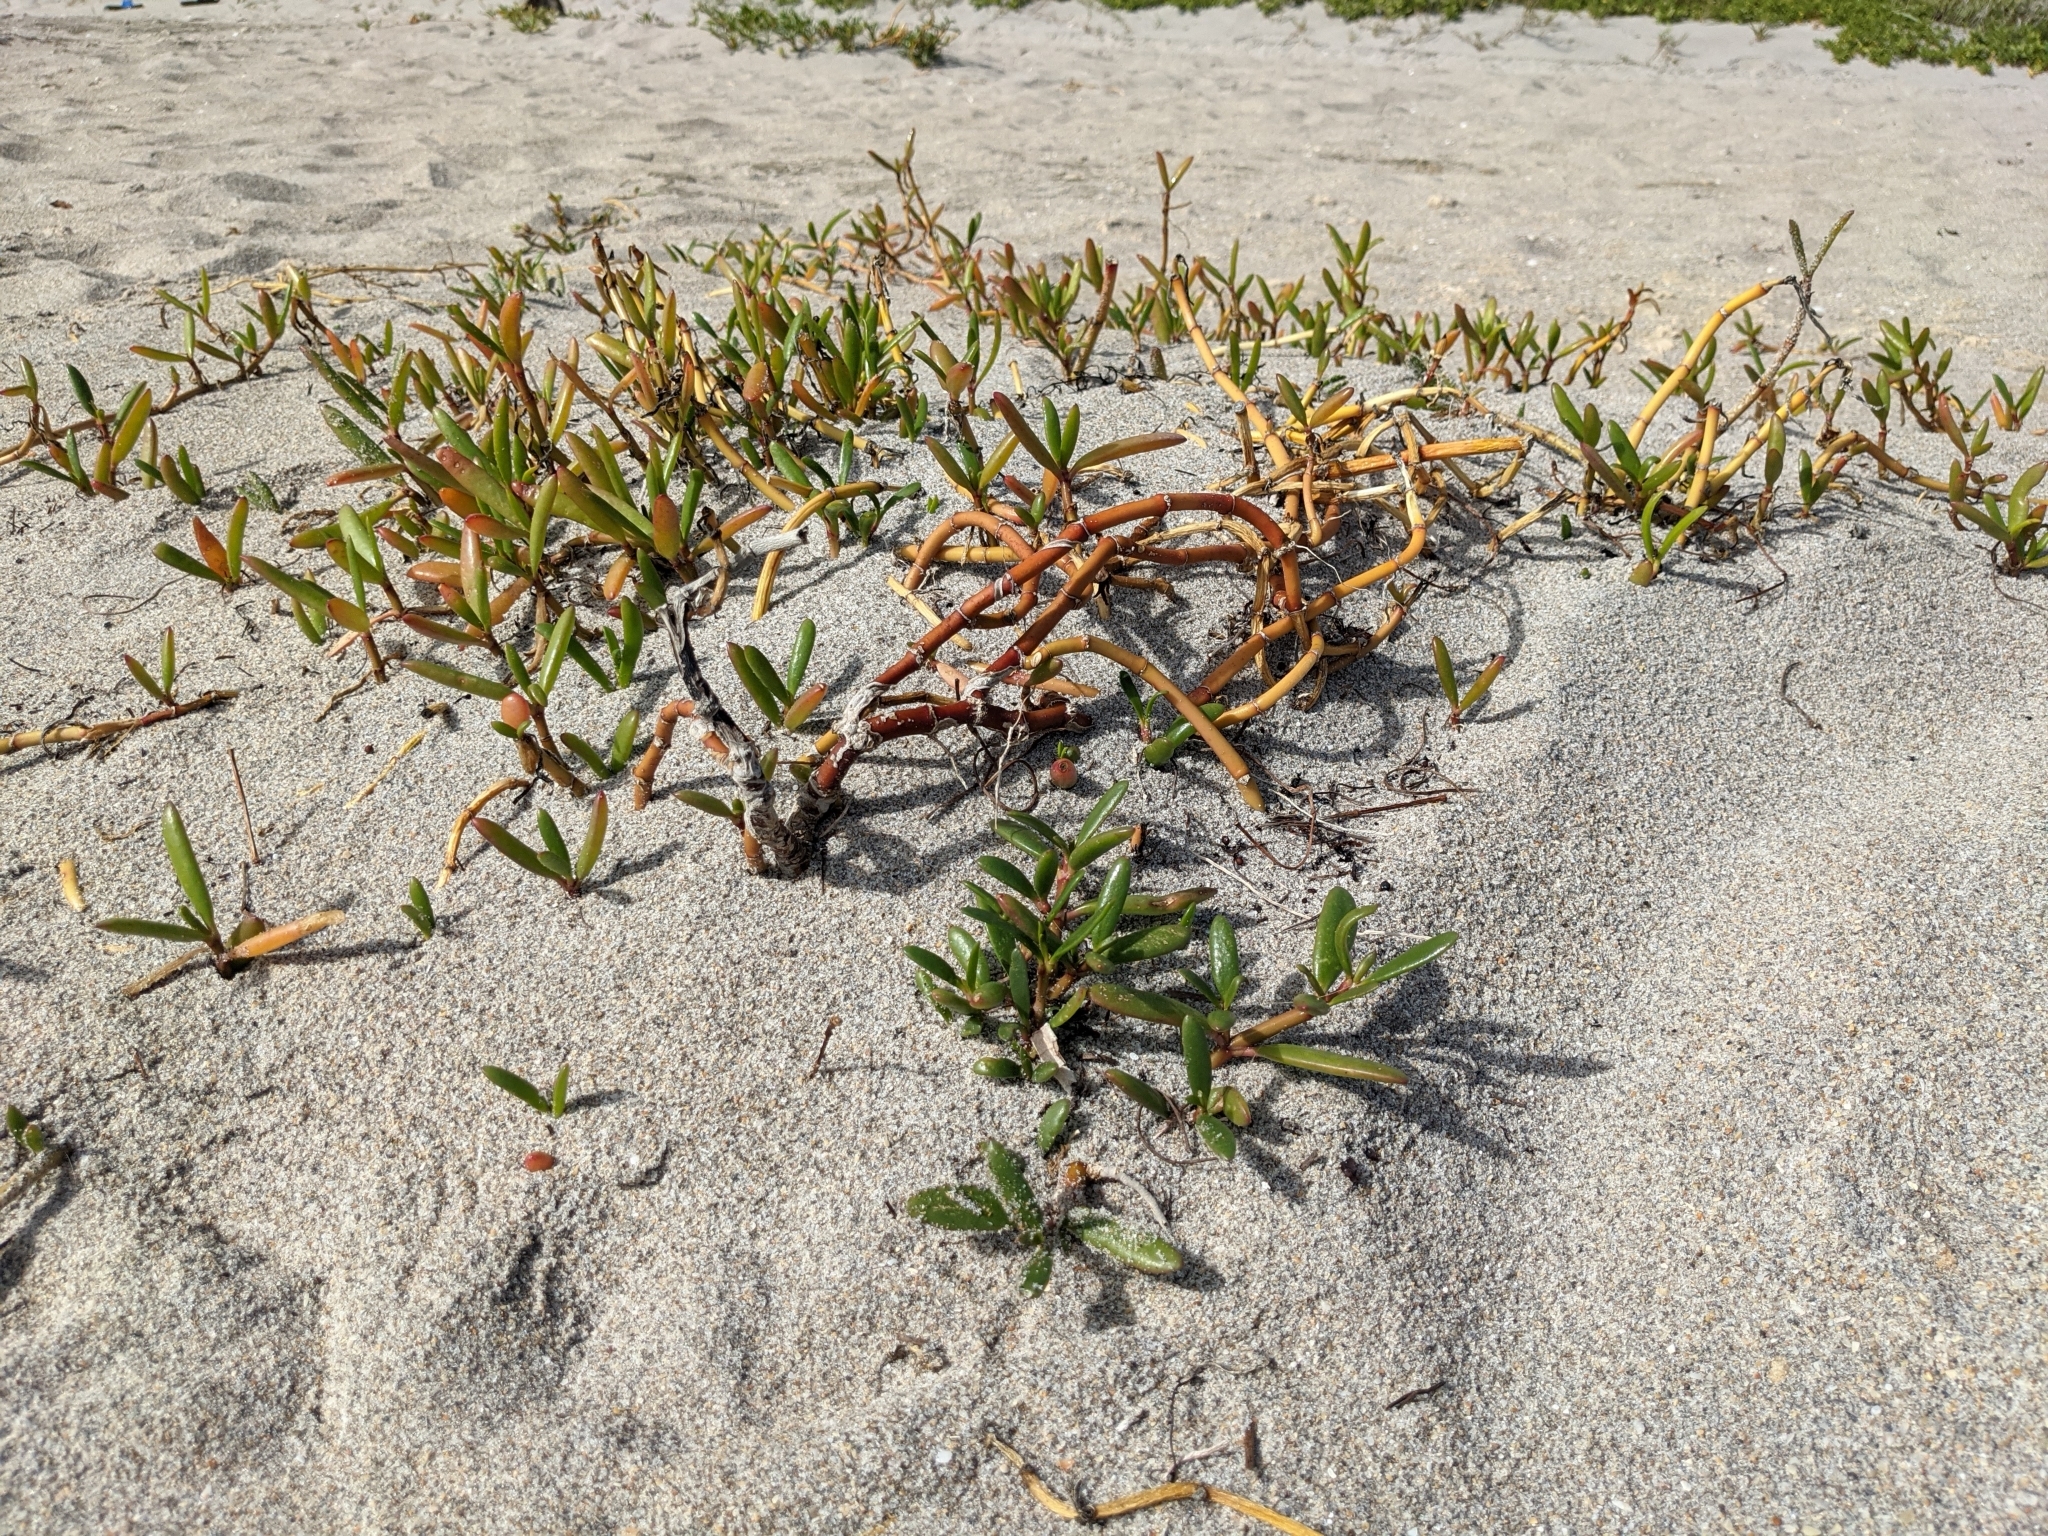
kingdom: Plantae
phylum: Tracheophyta
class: Magnoliopsida
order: Caryophyllales
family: Aizoaceae
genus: Sesuvium
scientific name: Sesuvium portulacastrum
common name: Sea-purslane
